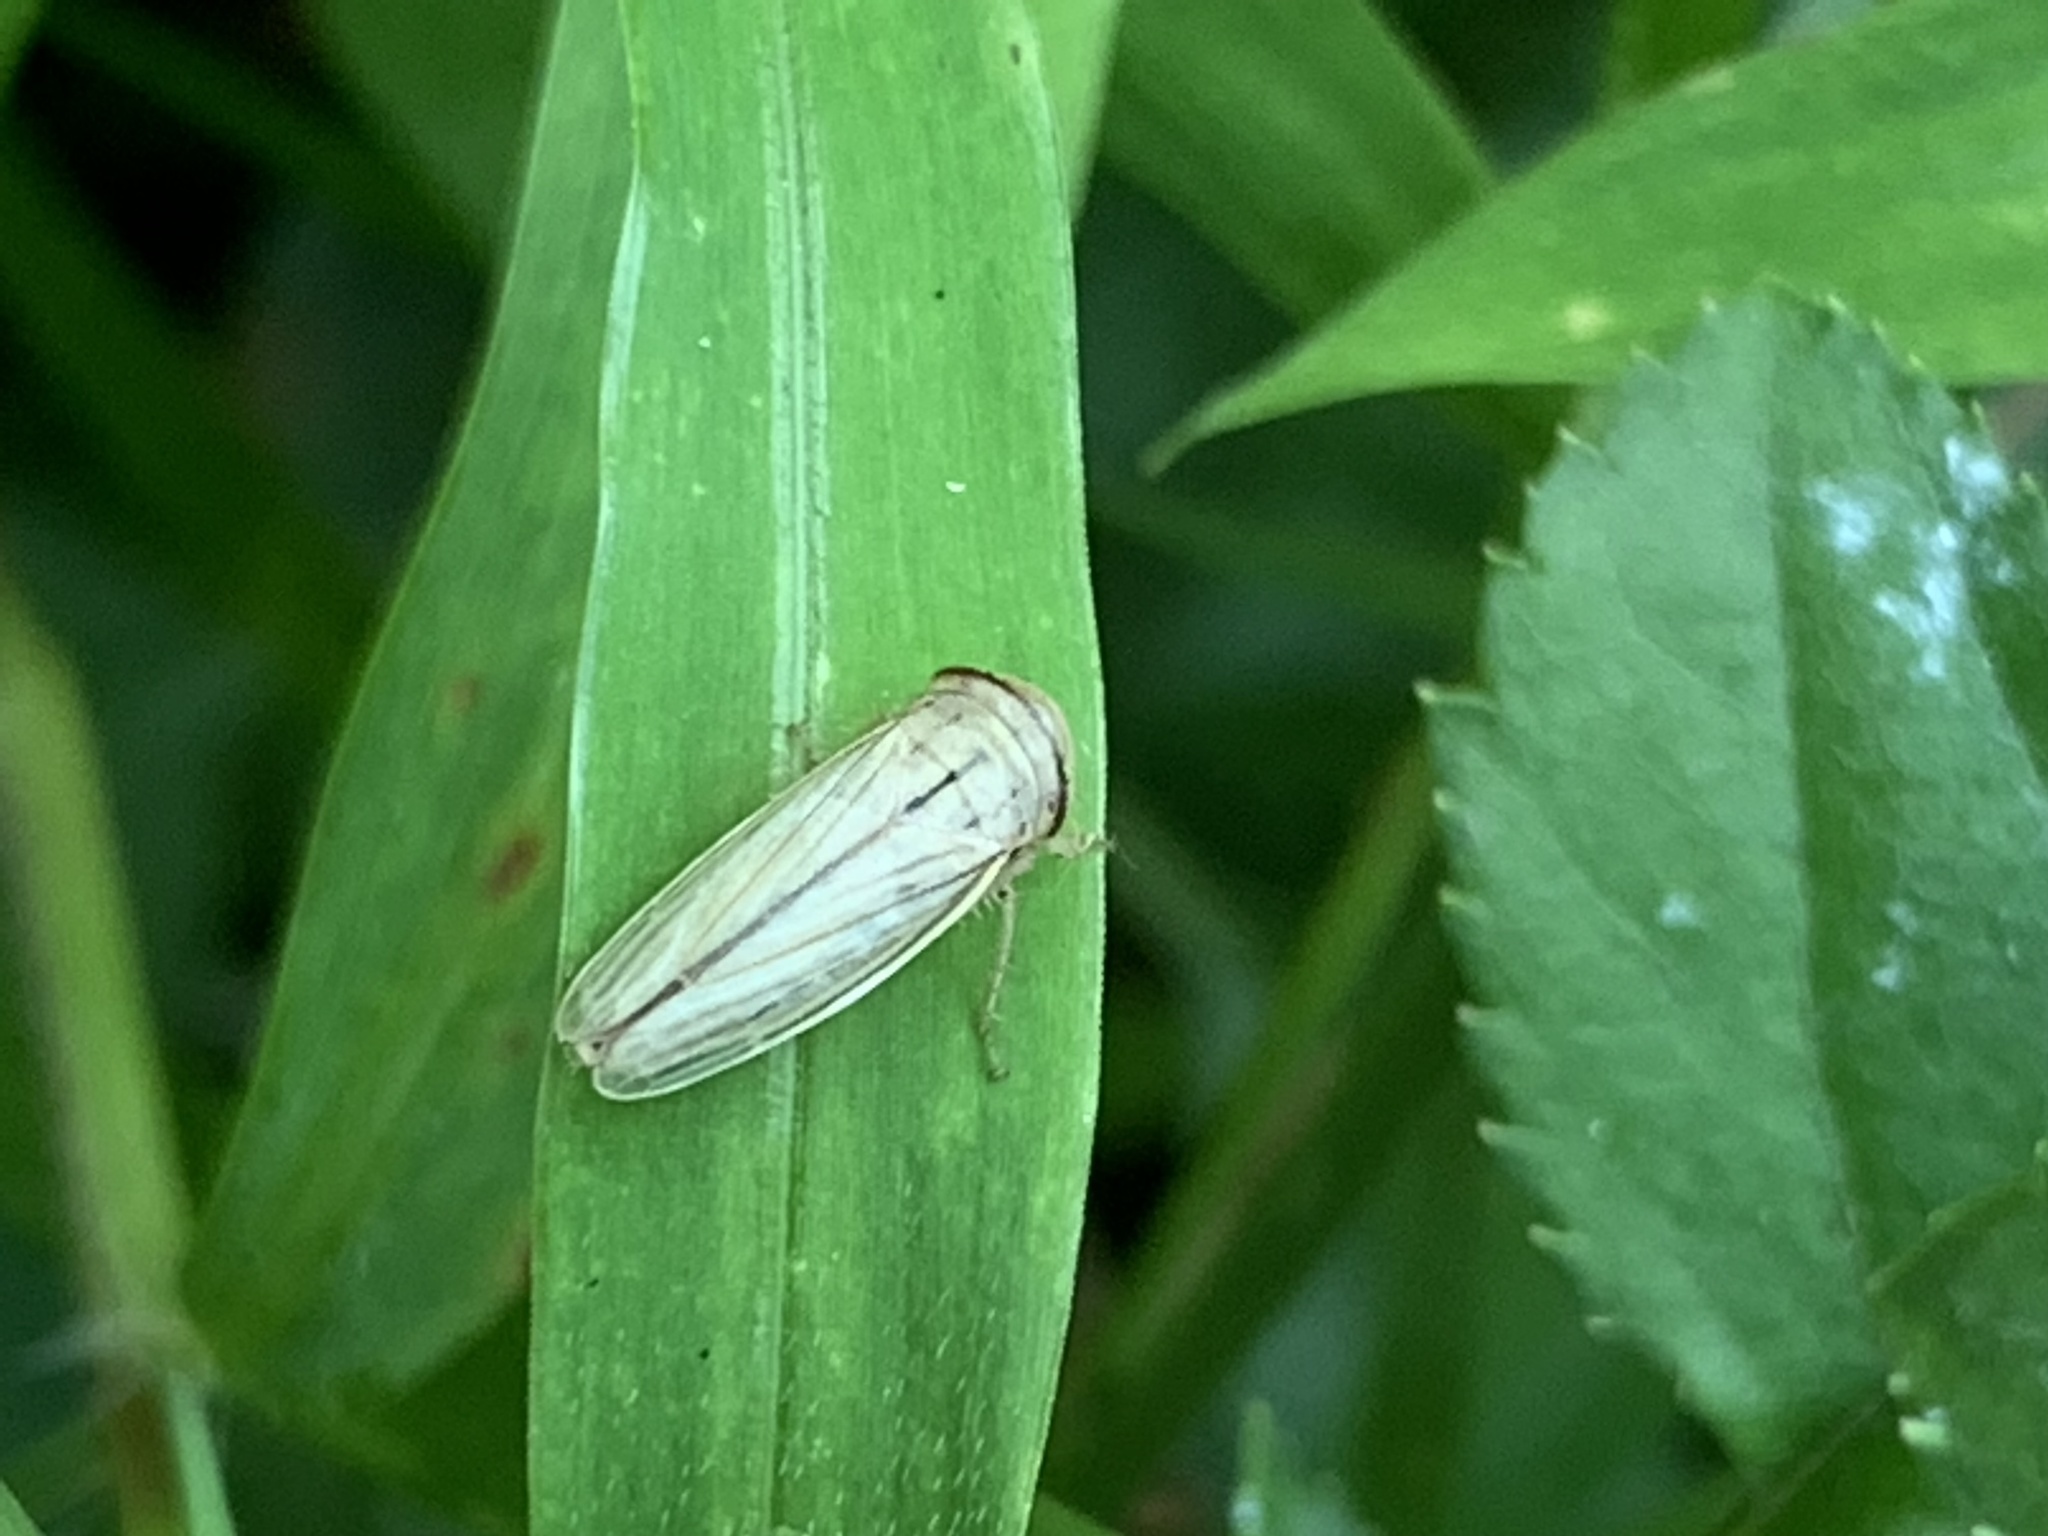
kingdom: Animalia
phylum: Arthropoda
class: Insecta
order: Hemiptera
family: Cicadellidae
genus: Athysanus
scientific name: Athysanus argentarius
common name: Silver leafhopper
